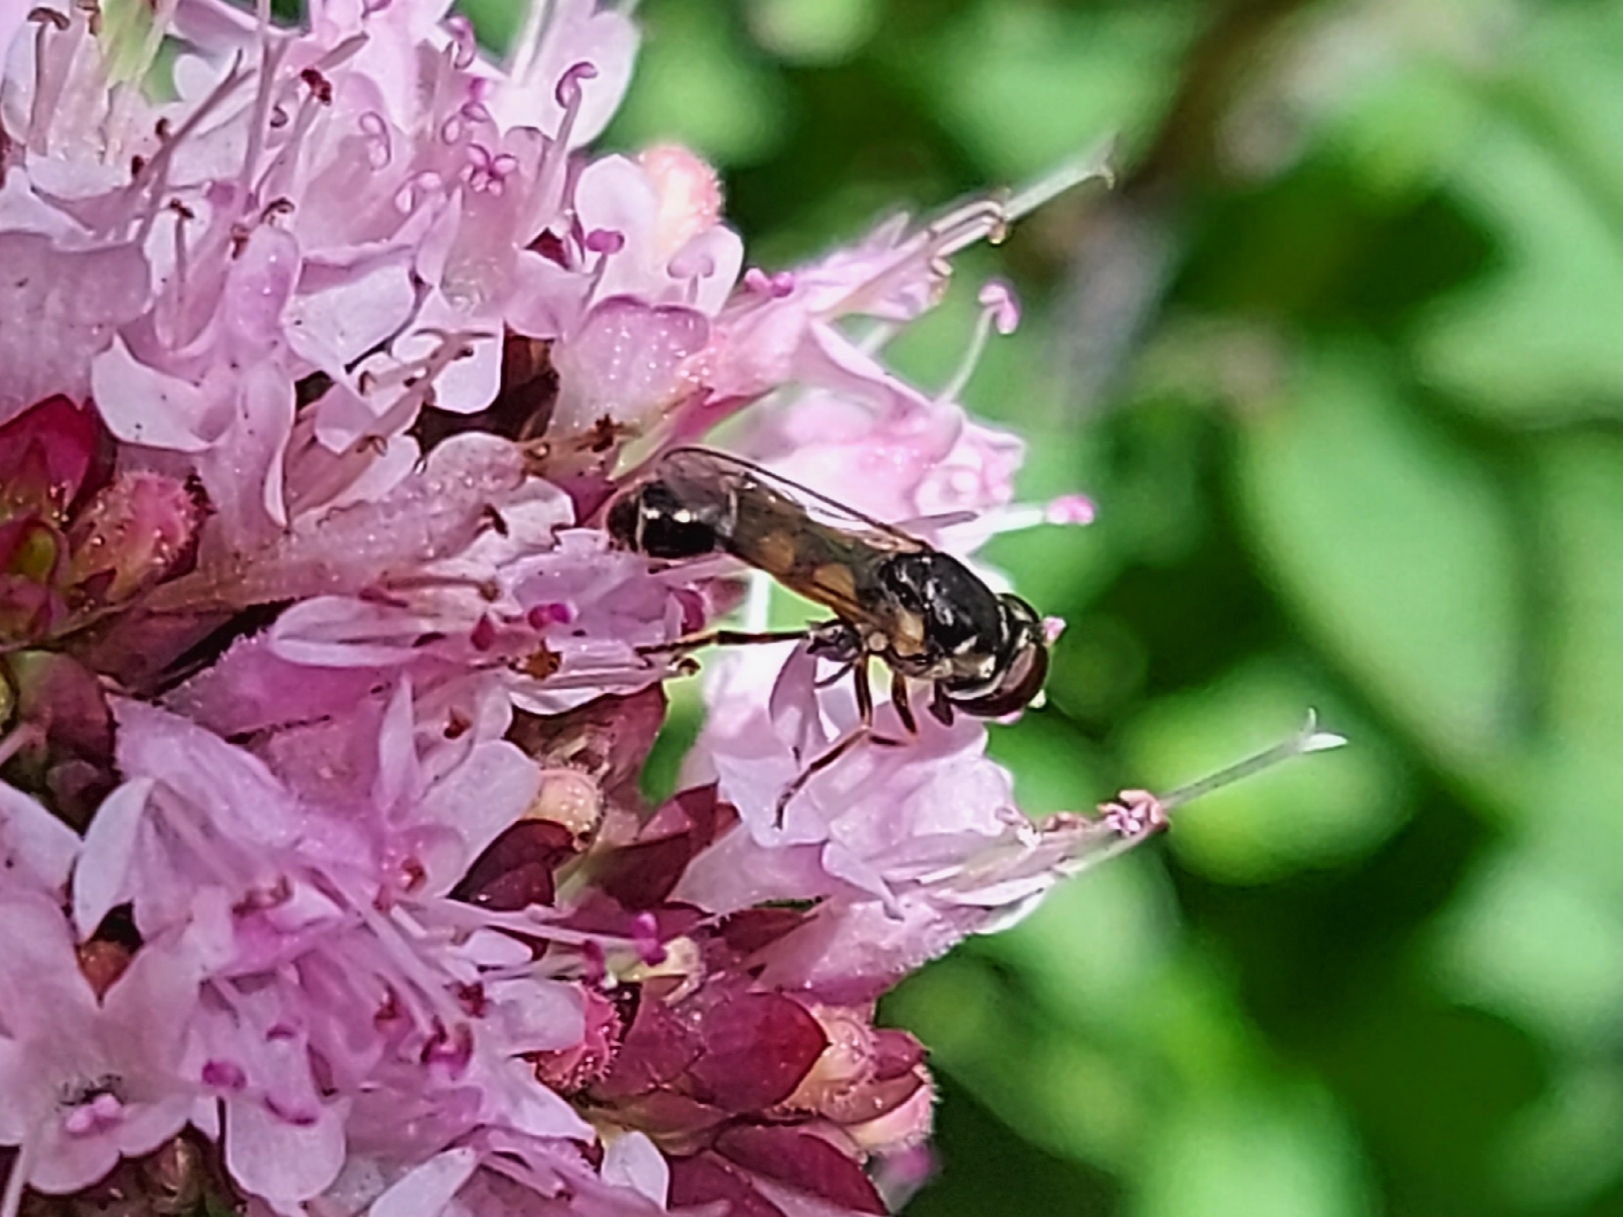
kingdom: Animalia
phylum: Arthropoda
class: Insecta
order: Diptera
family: Syrphidae
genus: Syritta
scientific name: Syritta pipiens
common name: Hover fly
